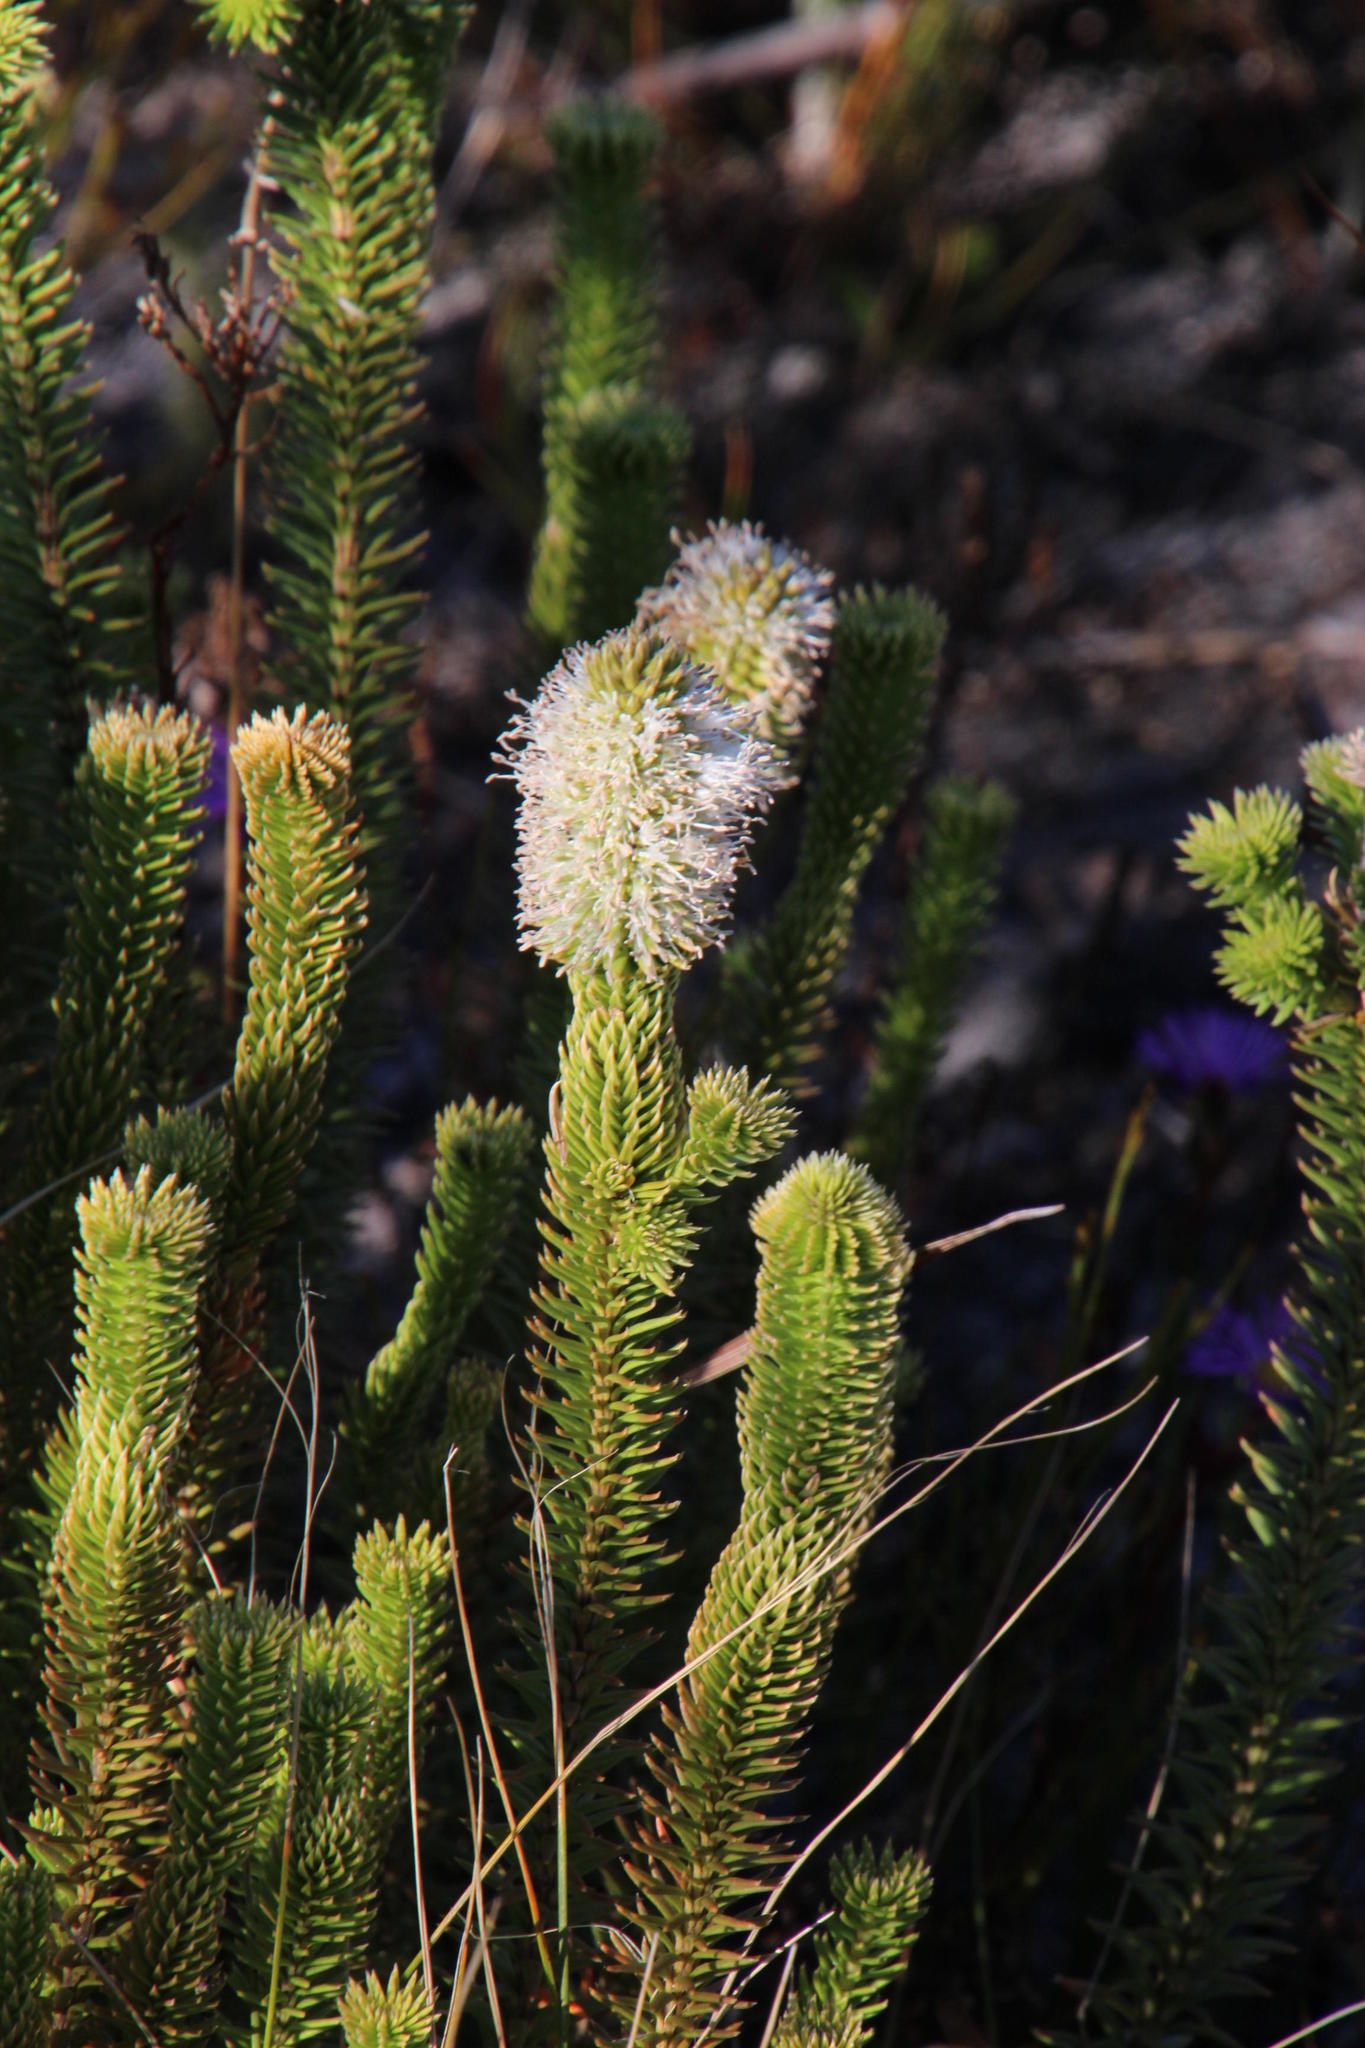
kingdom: Plantae
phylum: Tracheophyta
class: Magnoliopsida
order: Lamiales
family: Stilbaceae
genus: Stilbe
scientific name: Stilbe vestita
